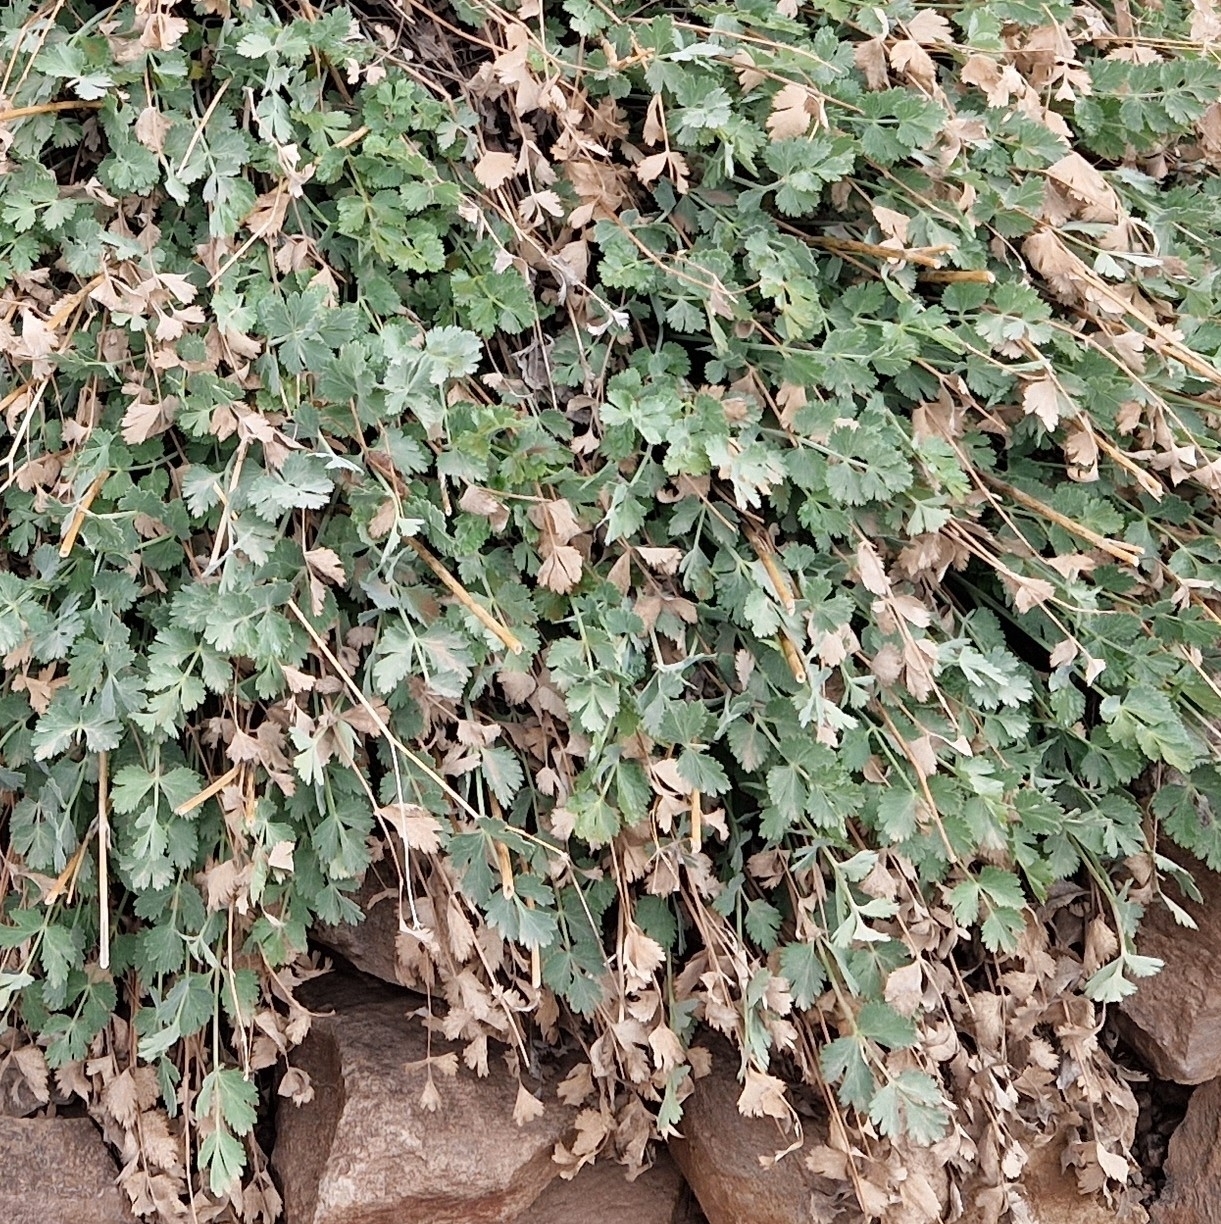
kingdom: Plantae
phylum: Tracheophyta
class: Magnoliopsida
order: Apiales
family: Apiaceae
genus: Pimpinella
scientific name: Pimpinella cumbrae
